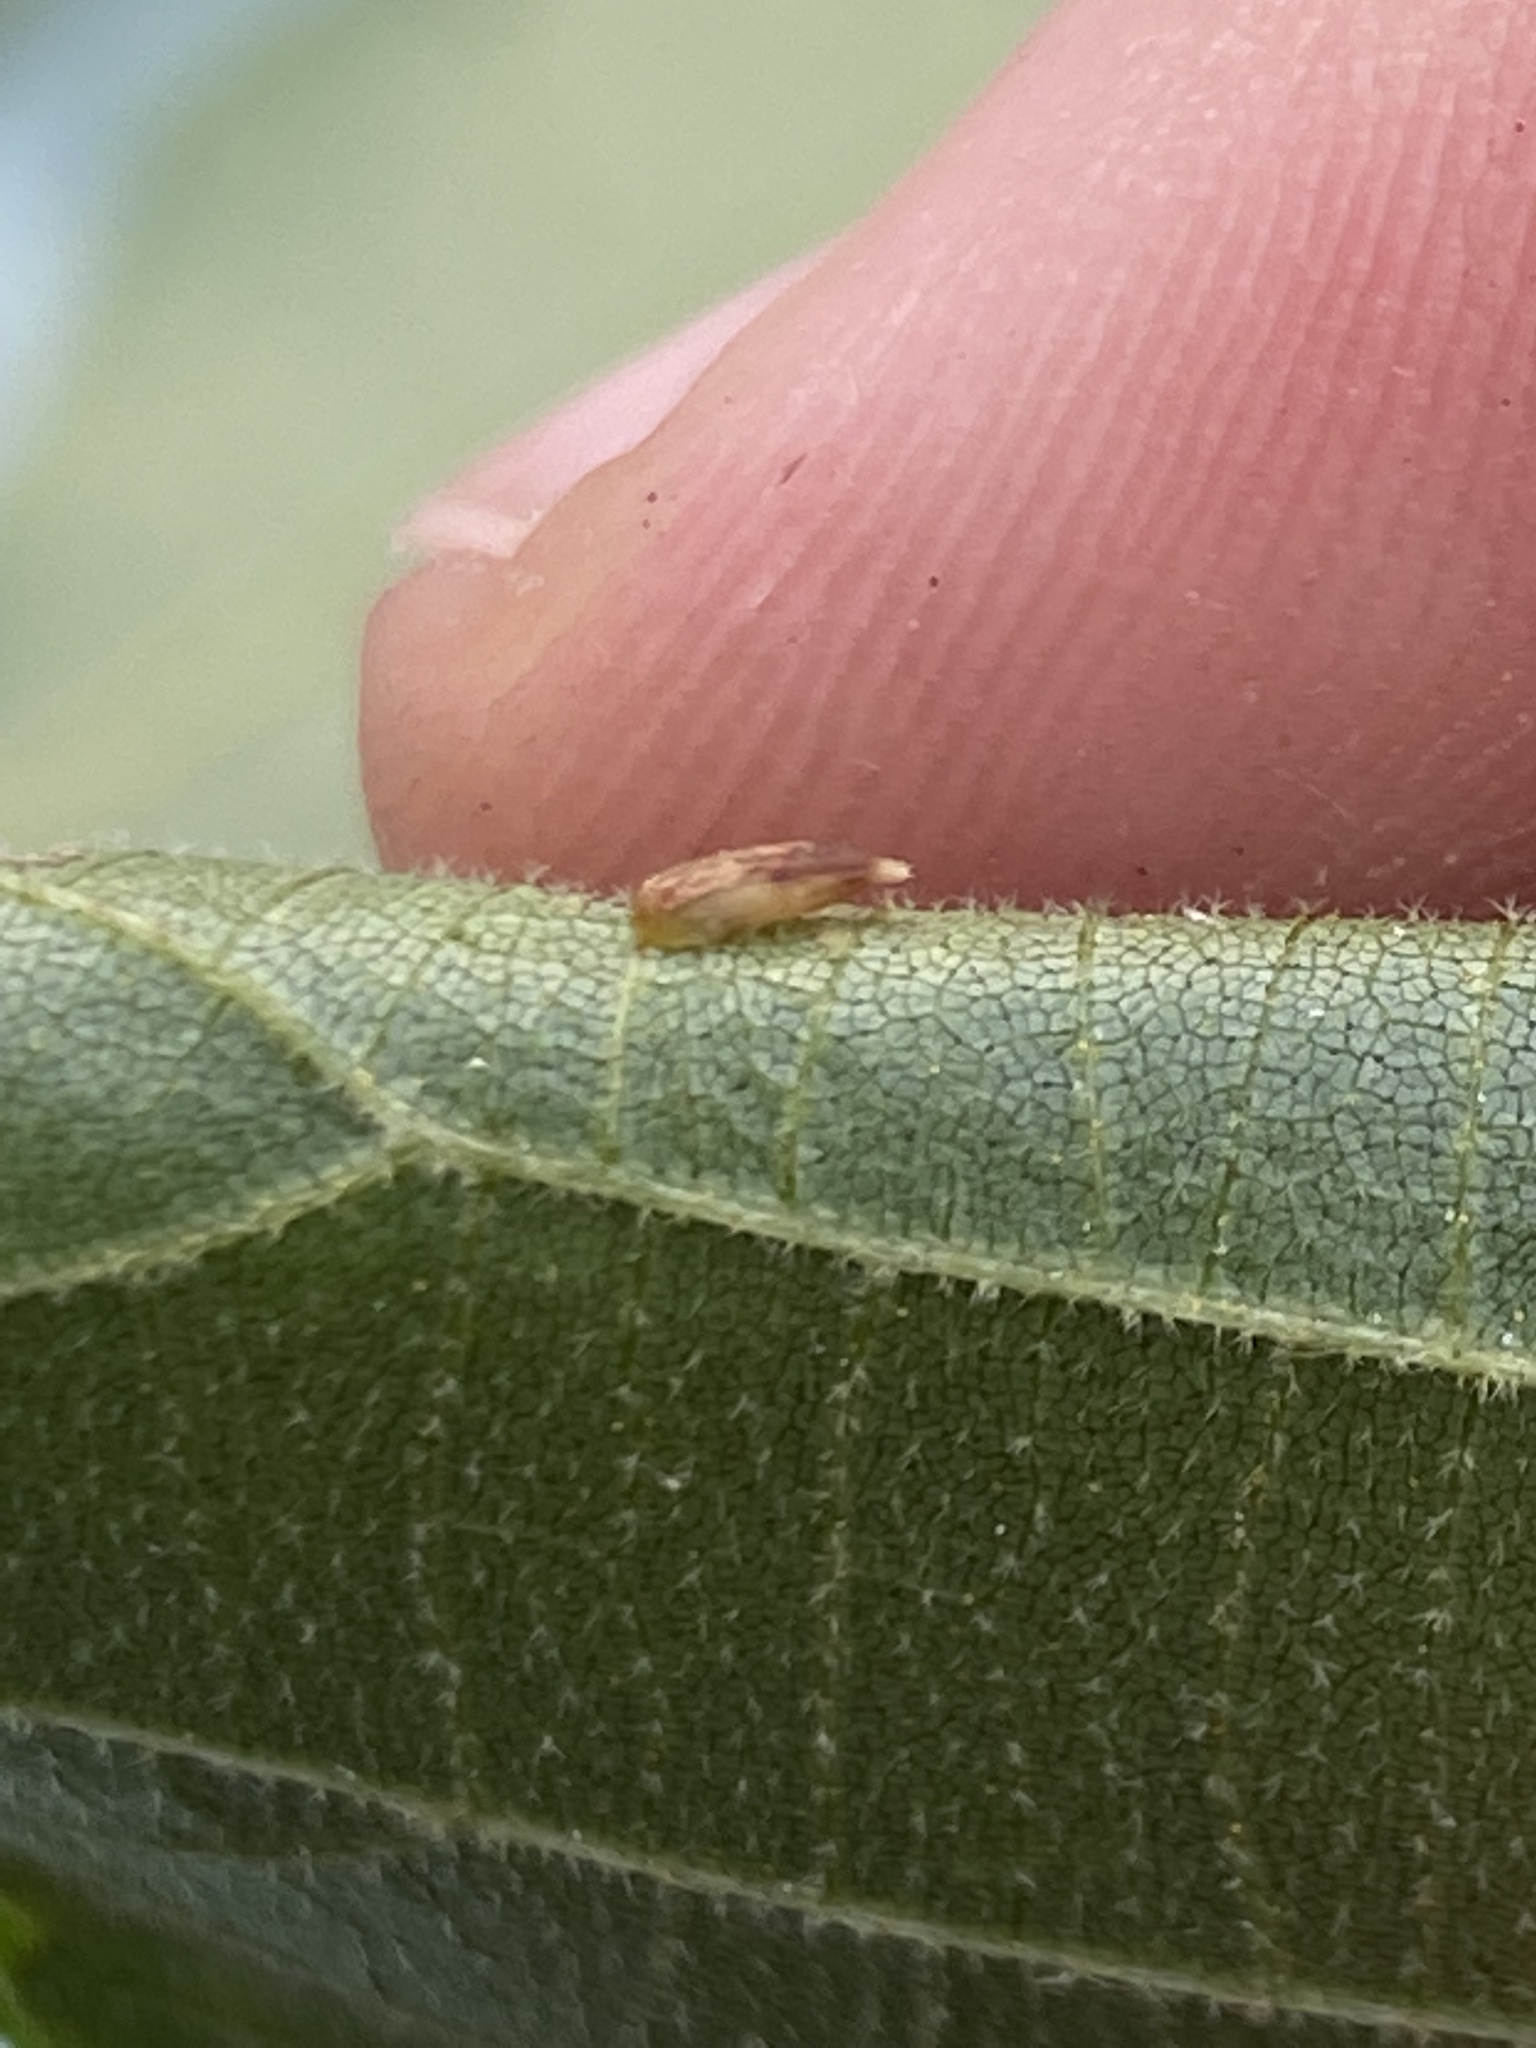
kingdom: Animalia
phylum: Arthropoda
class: Insecta
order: Diptera
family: Cecidomyiidae
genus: Caryomyia
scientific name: Caryomyia striolata
